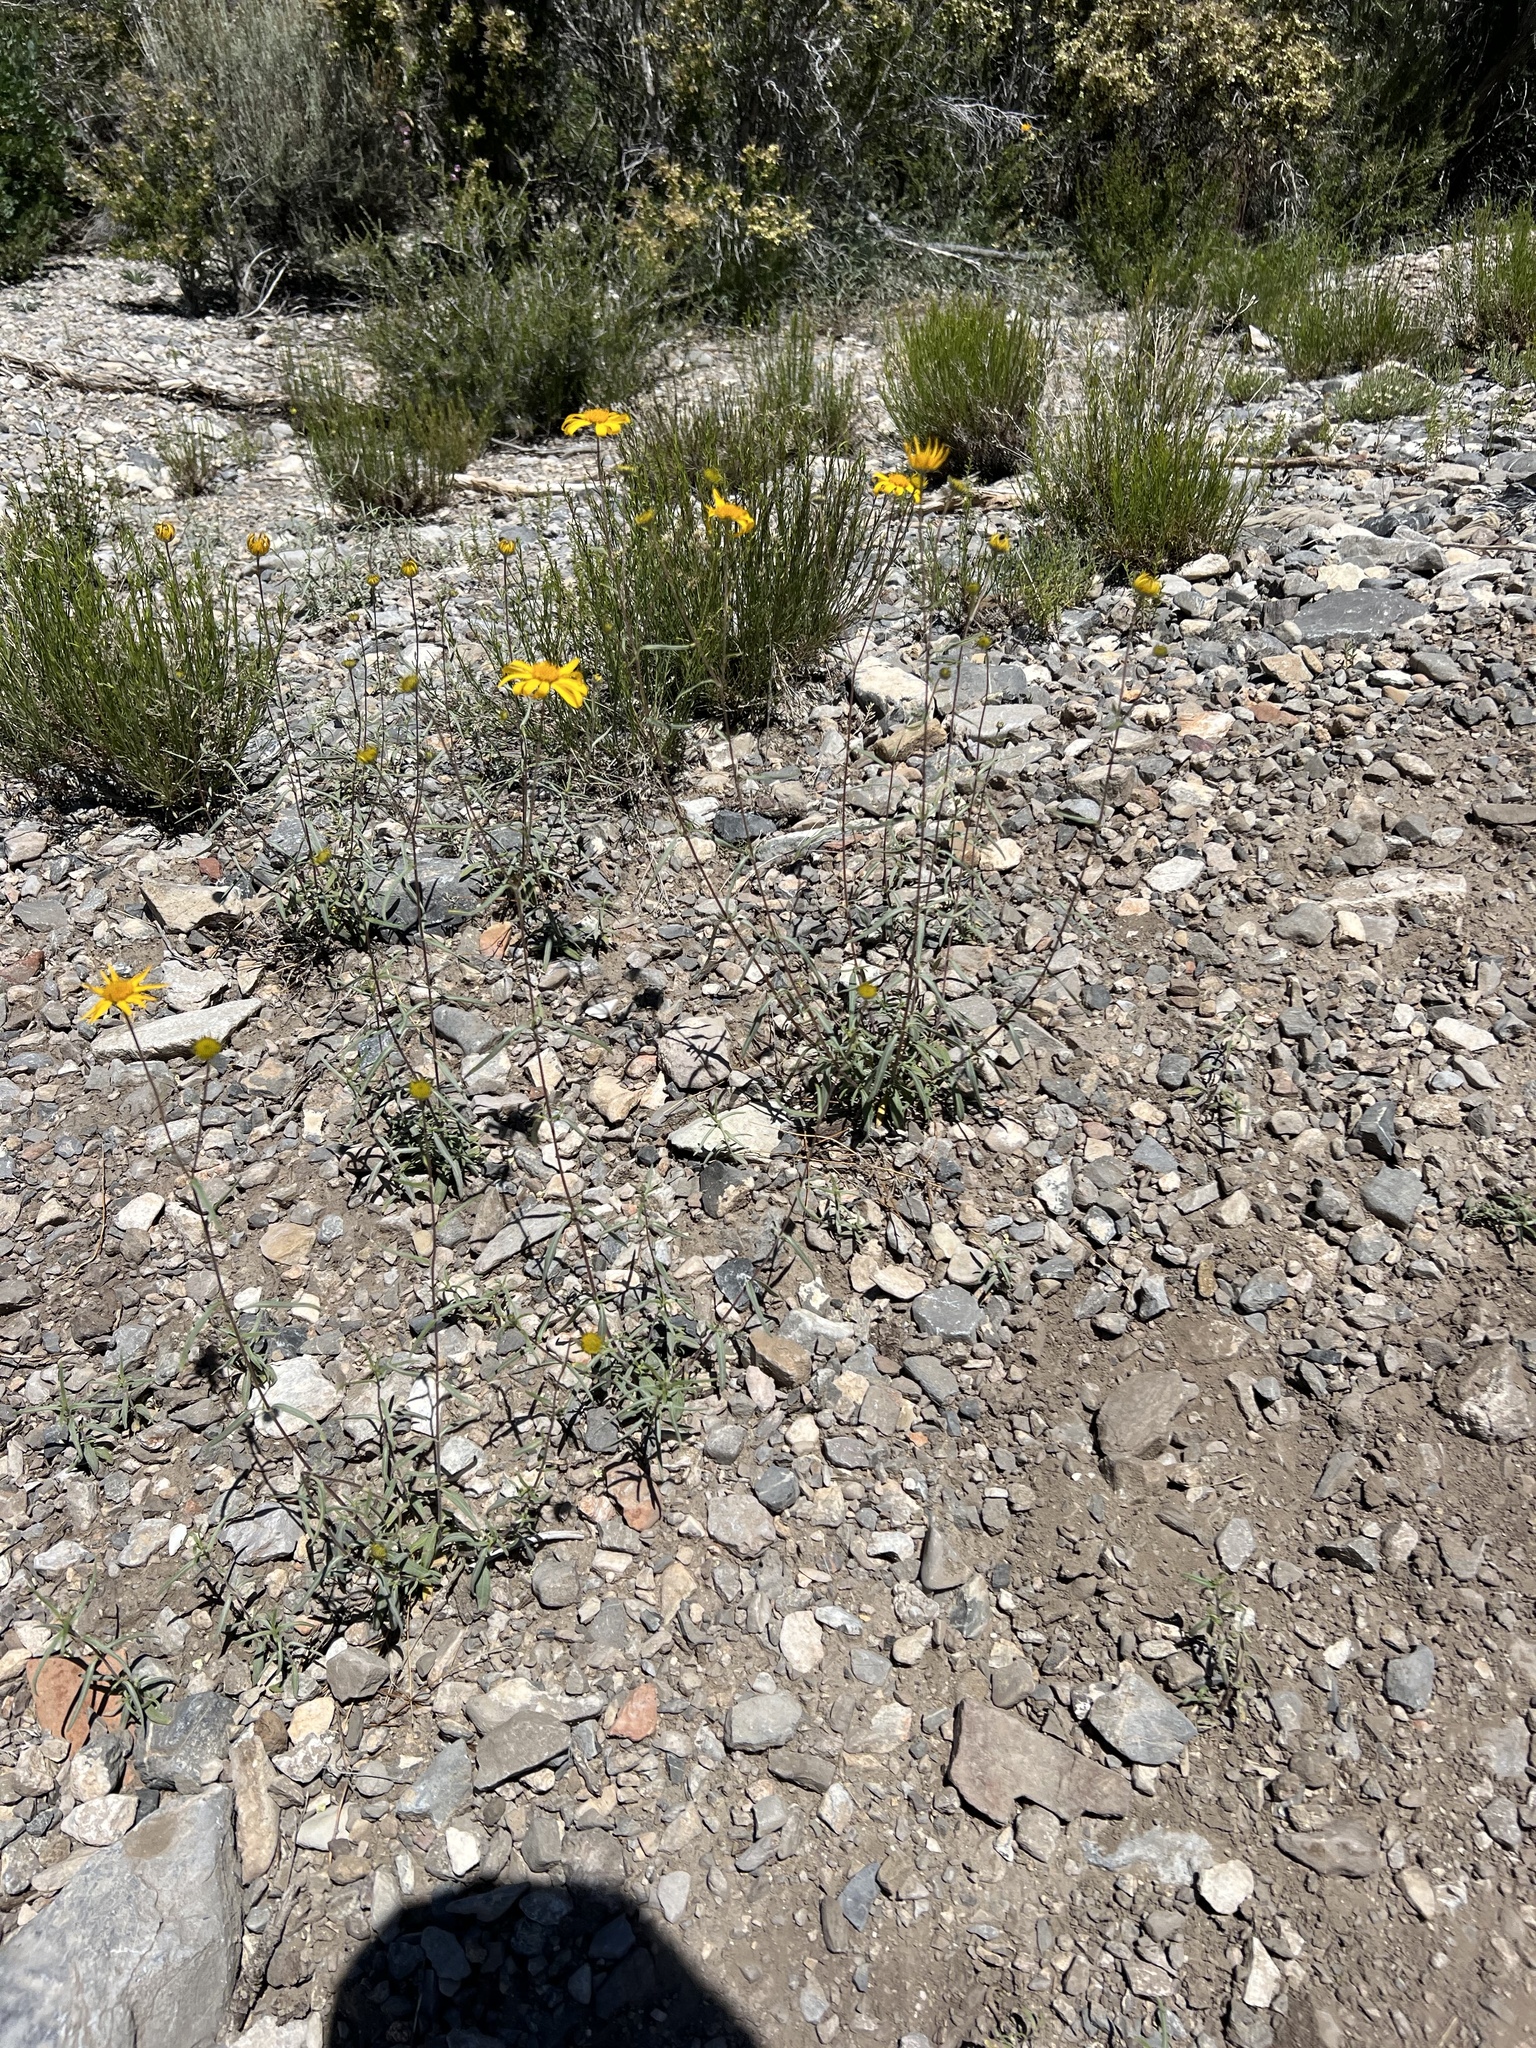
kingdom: Plantae
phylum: Tracheophyta
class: Magnoliopsida
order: Asterales
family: Asteraceae
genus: Heliomeris
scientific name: Heliomeris multiflora
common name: Showy goldeneye
